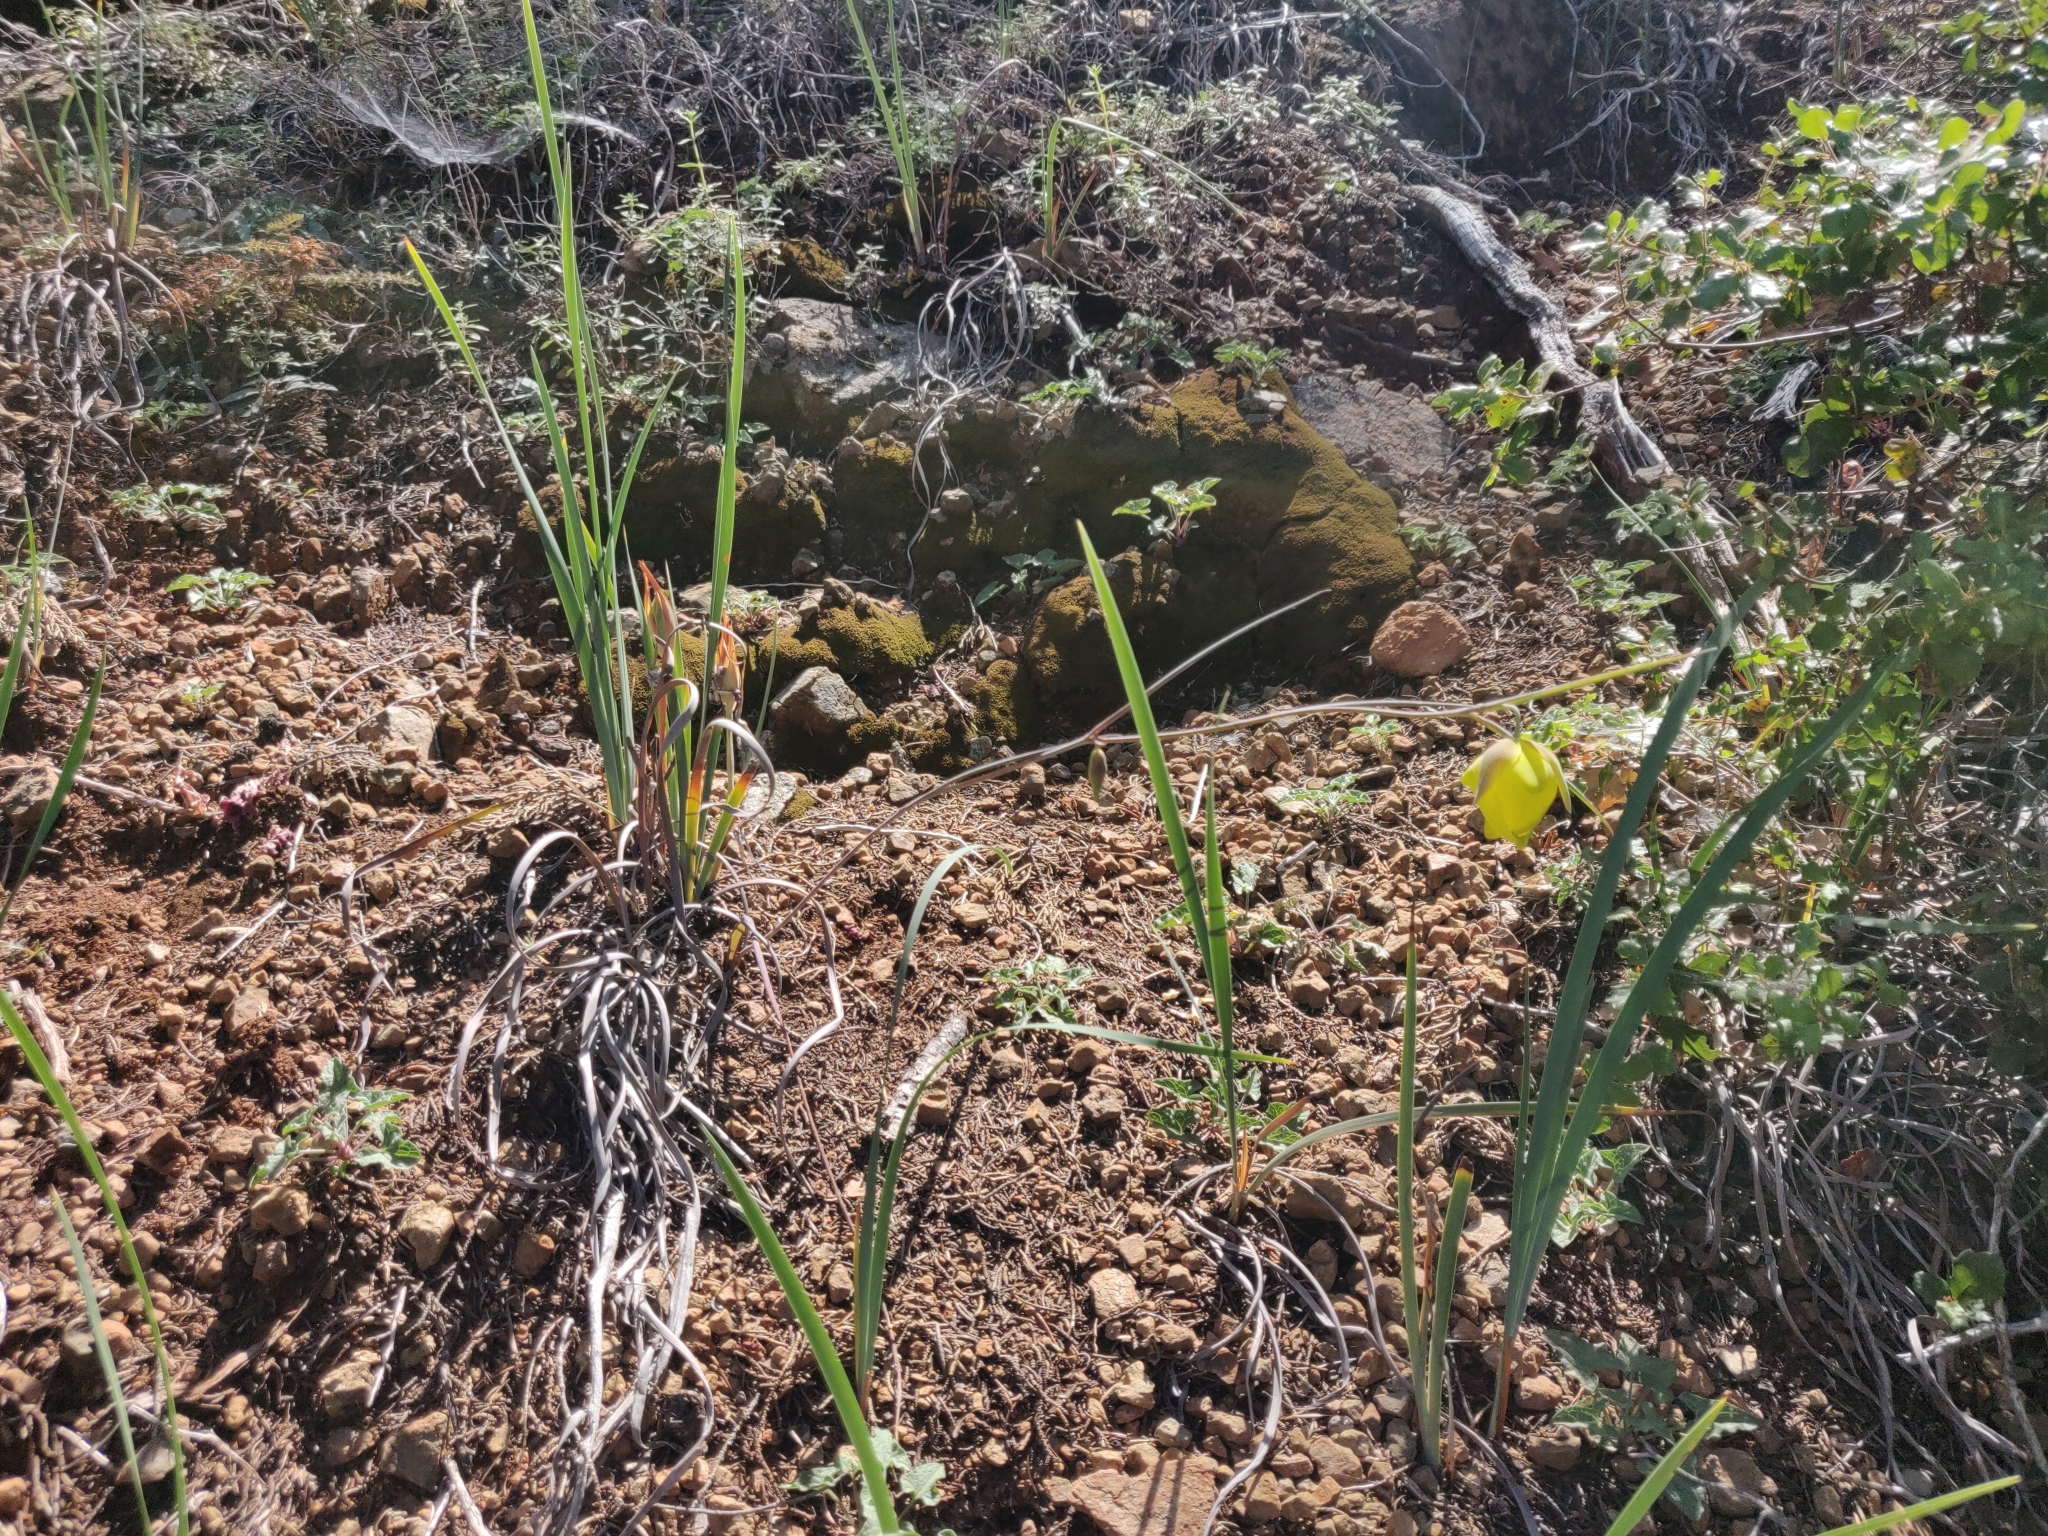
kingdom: Plantae
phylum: Tracheophyta
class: Liliopsida
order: Liliales
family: Liliaceae
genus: Calochortus
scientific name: Calochortus raichei
